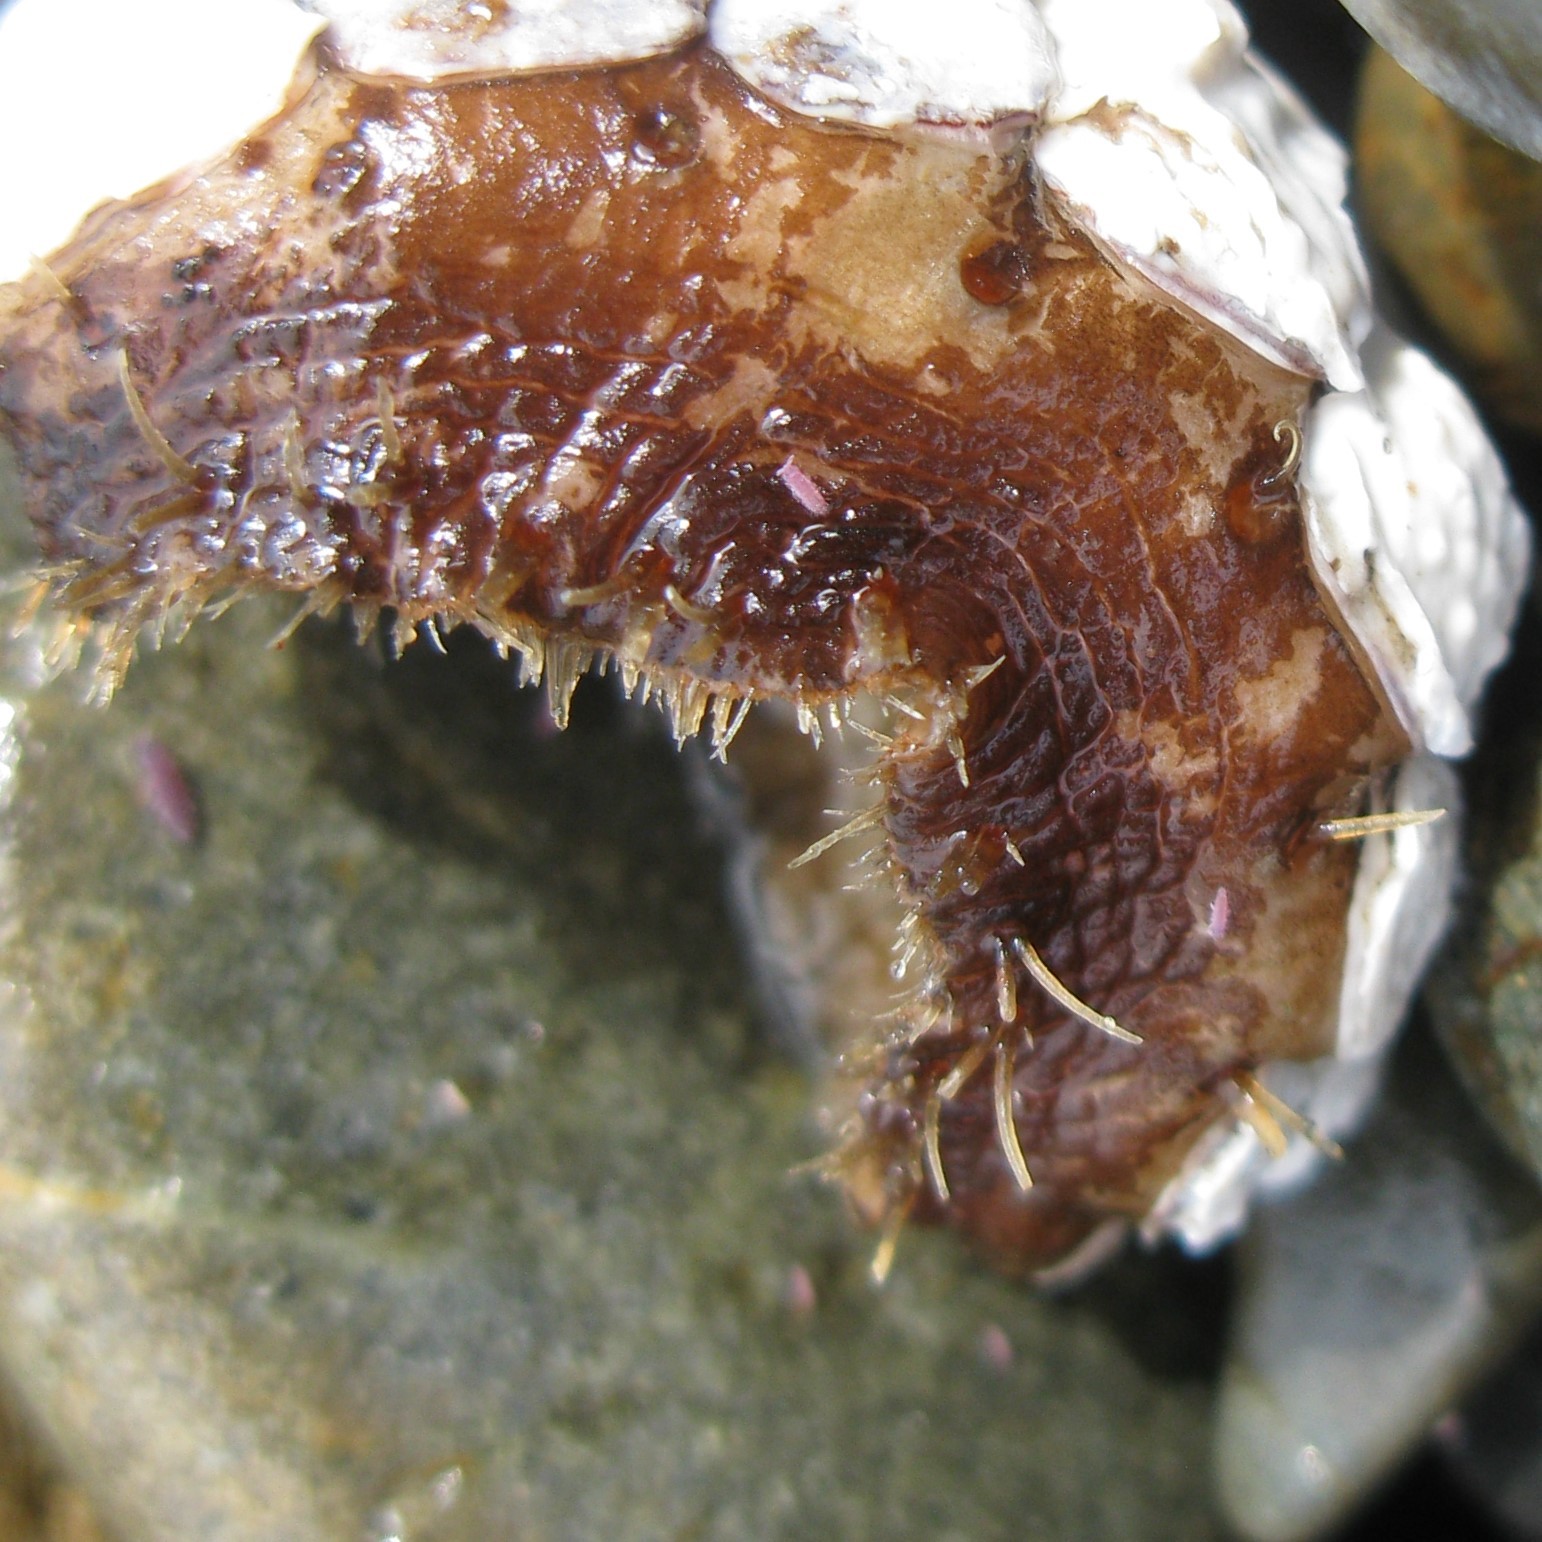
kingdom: Animalia
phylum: Mollusca
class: Polyplacophora
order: Chitonida
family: Mopaliidae
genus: Plaxiphora
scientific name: Plaxiphora biramosa
